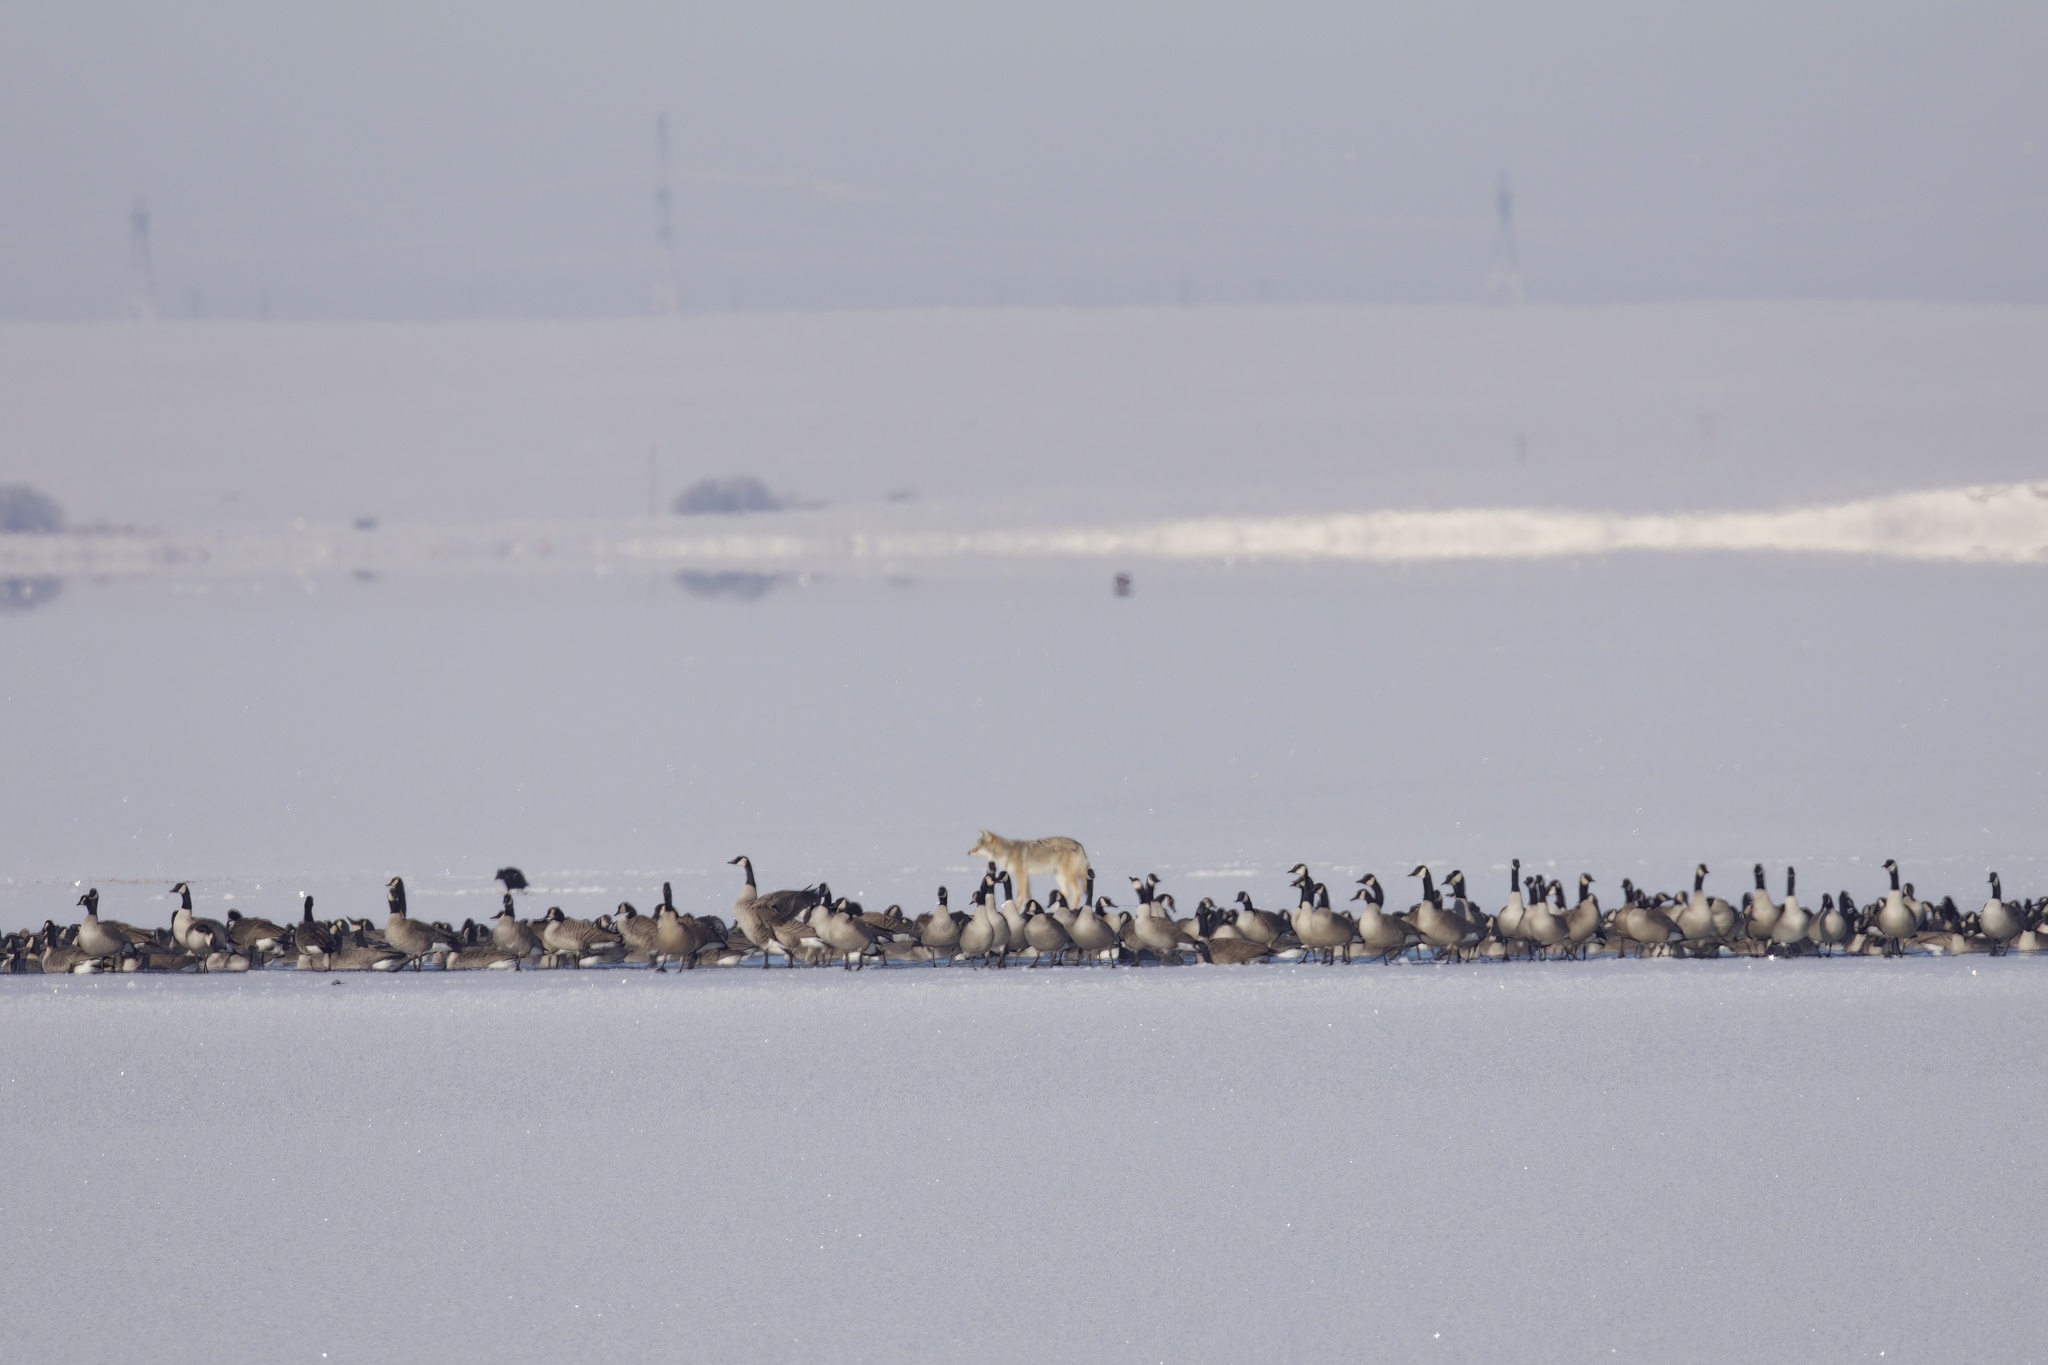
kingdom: Animalia
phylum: Chordata
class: Aves
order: Anseriformes
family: Anatidae
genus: Branta
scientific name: Branta canadensis
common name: Canada goose
